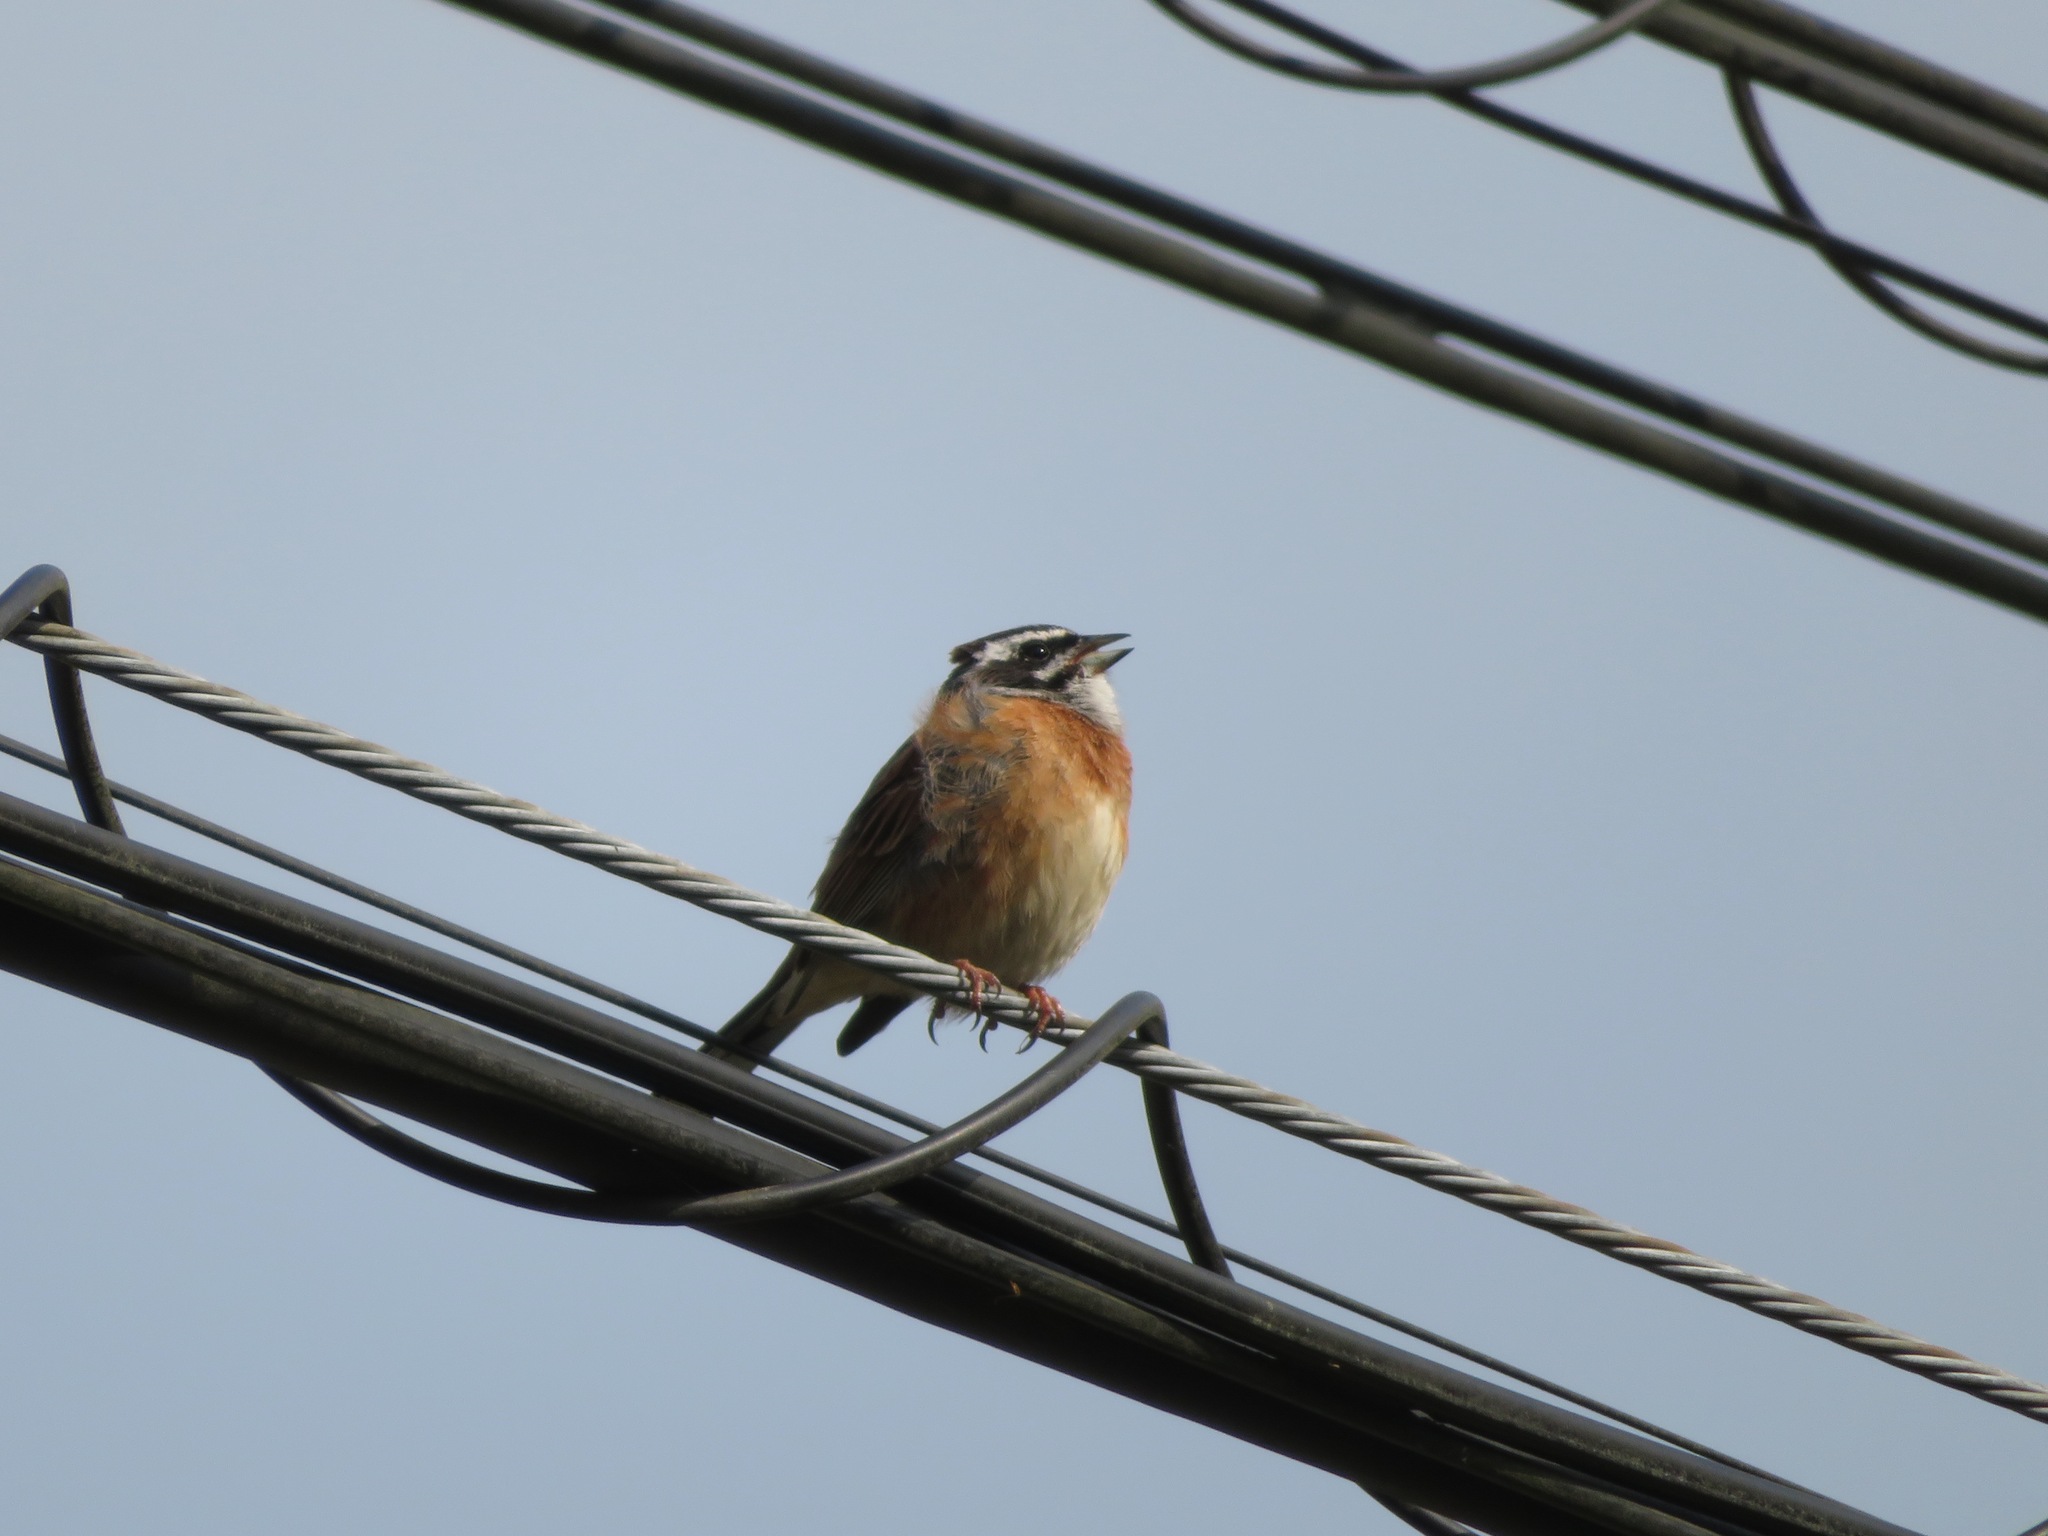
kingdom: Animalia
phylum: Chordata
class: Aves
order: Passeriformes
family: Emberizidae
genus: Emberiza
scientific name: Emberiza cioides
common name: Meadow bunting
